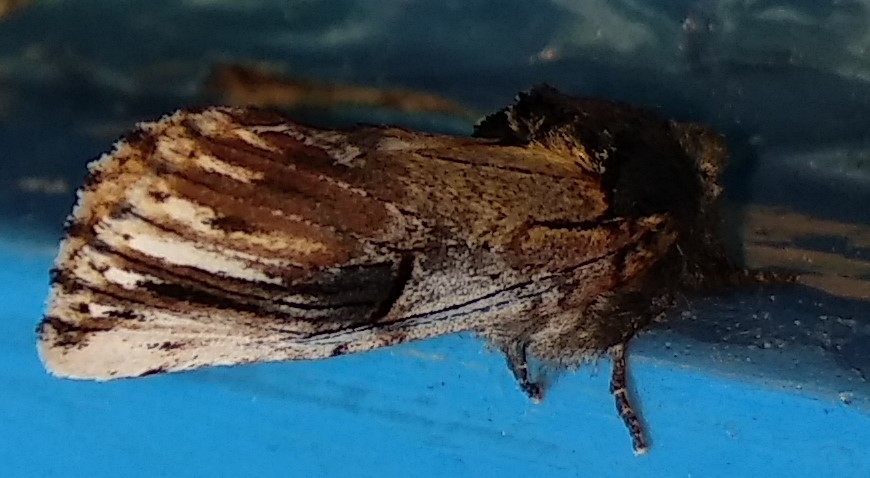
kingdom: Animalia
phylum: Arthropoda
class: Insecta
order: Lepidoptera
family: Notodontidae
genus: Schizura
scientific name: Schizura badia
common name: Chestnut schizura
